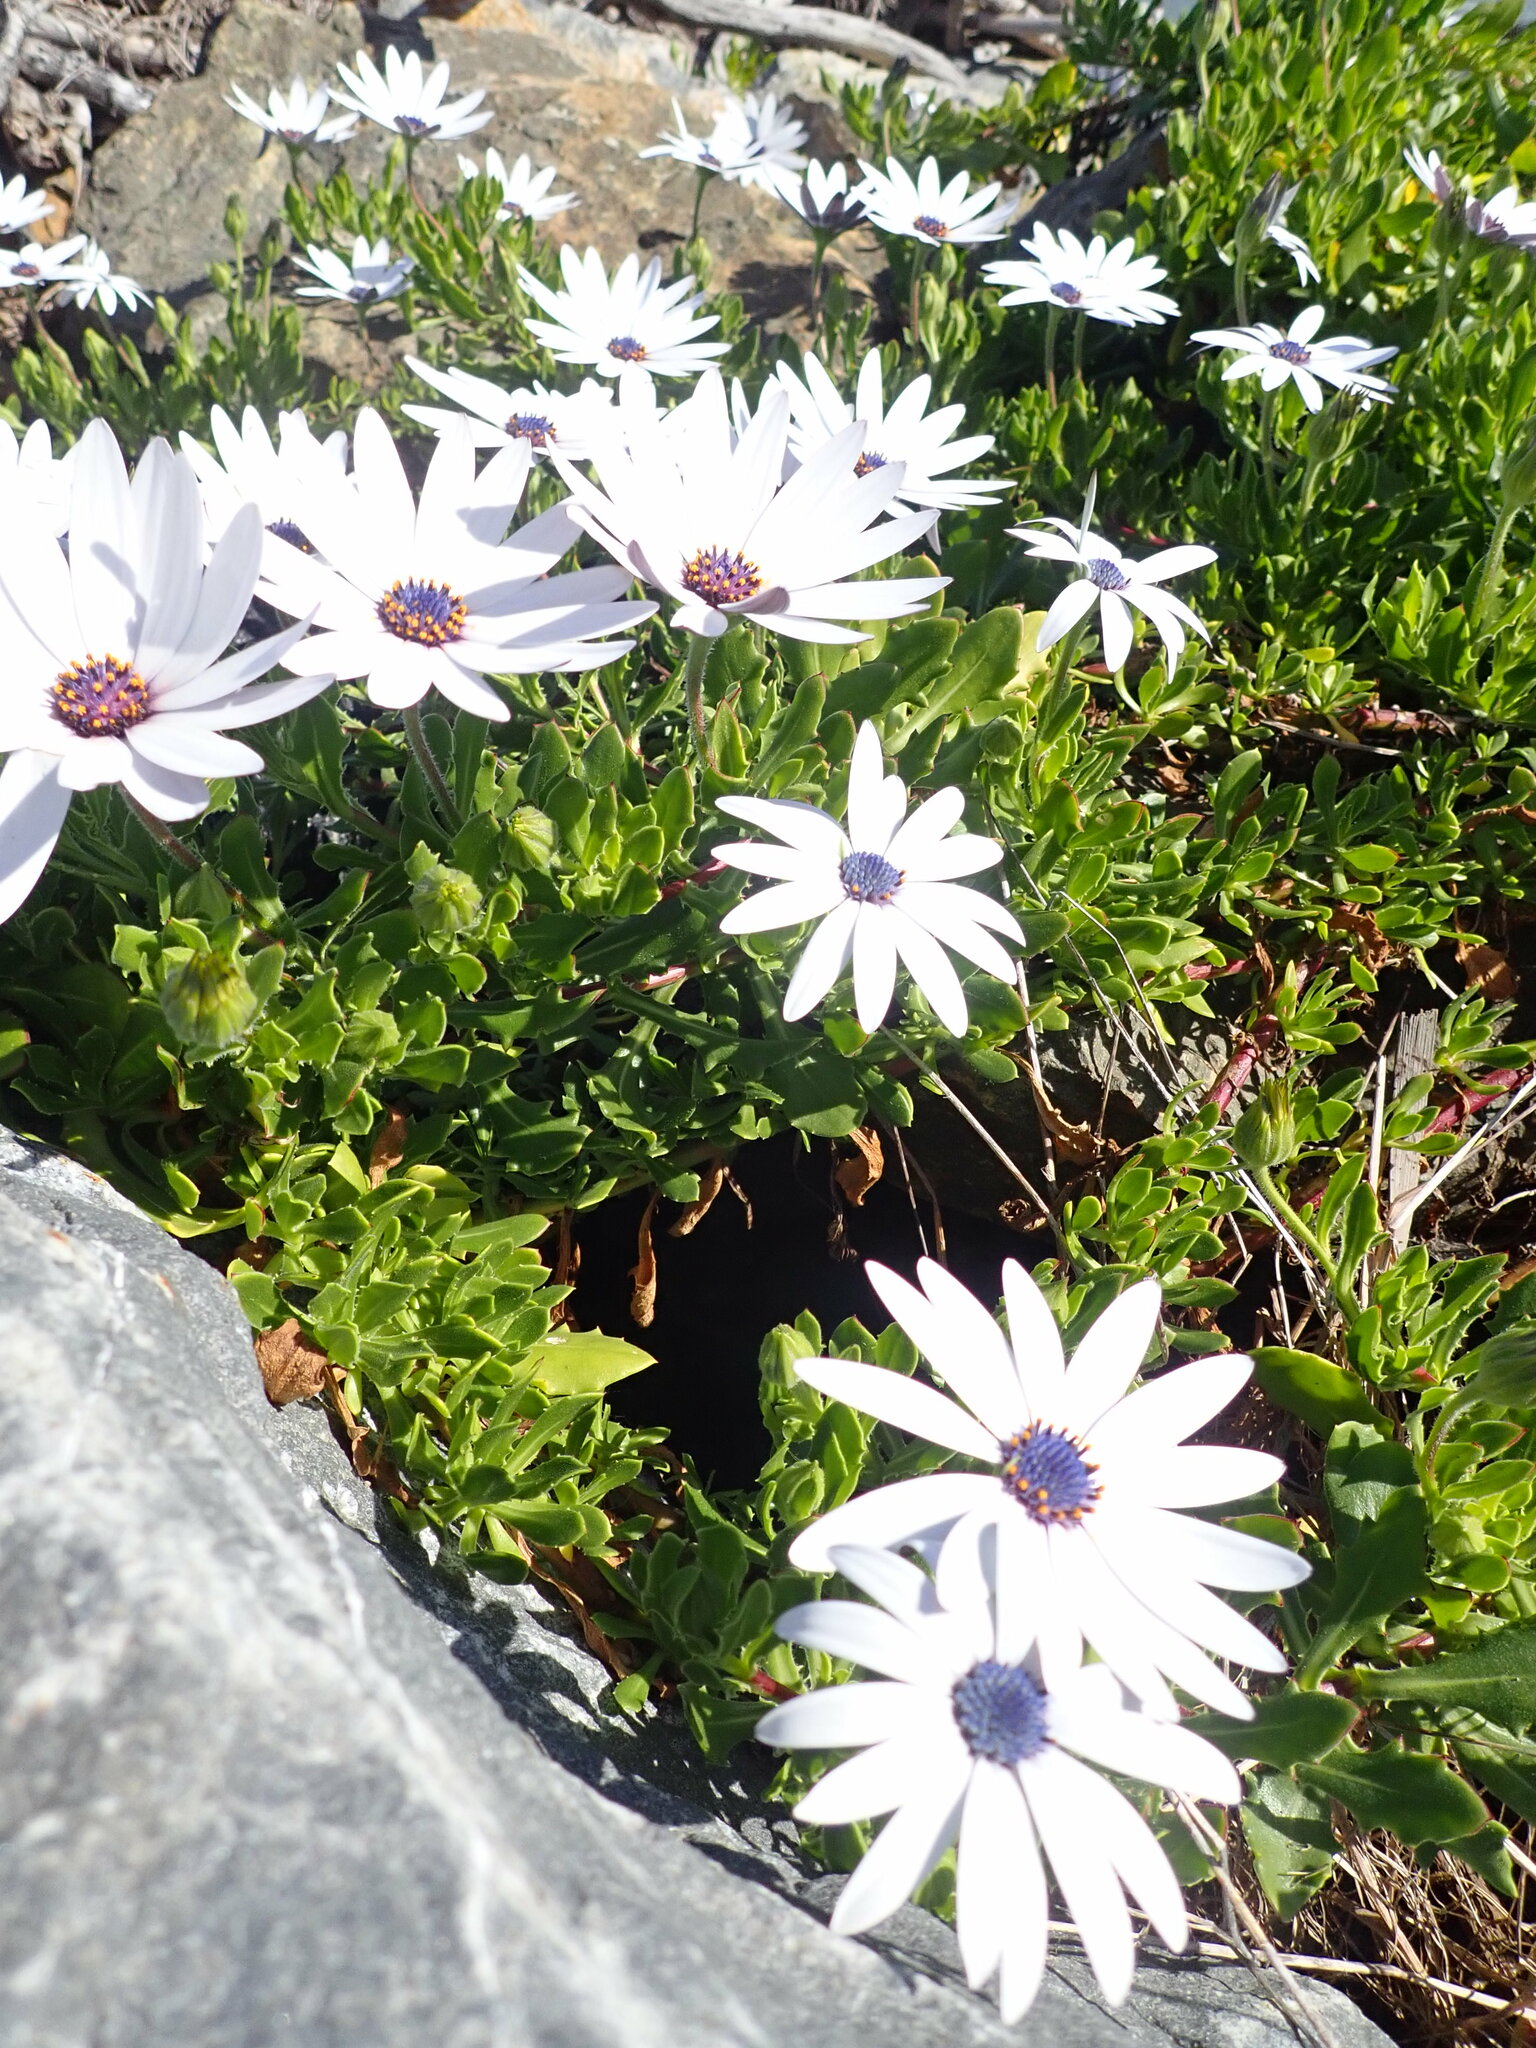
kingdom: Plantae
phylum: Tracheophyta
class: Magnoliopsida
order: Asterales
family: Asteraceae
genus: Dimorphotheca
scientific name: Dimorphotheca fruticosa
